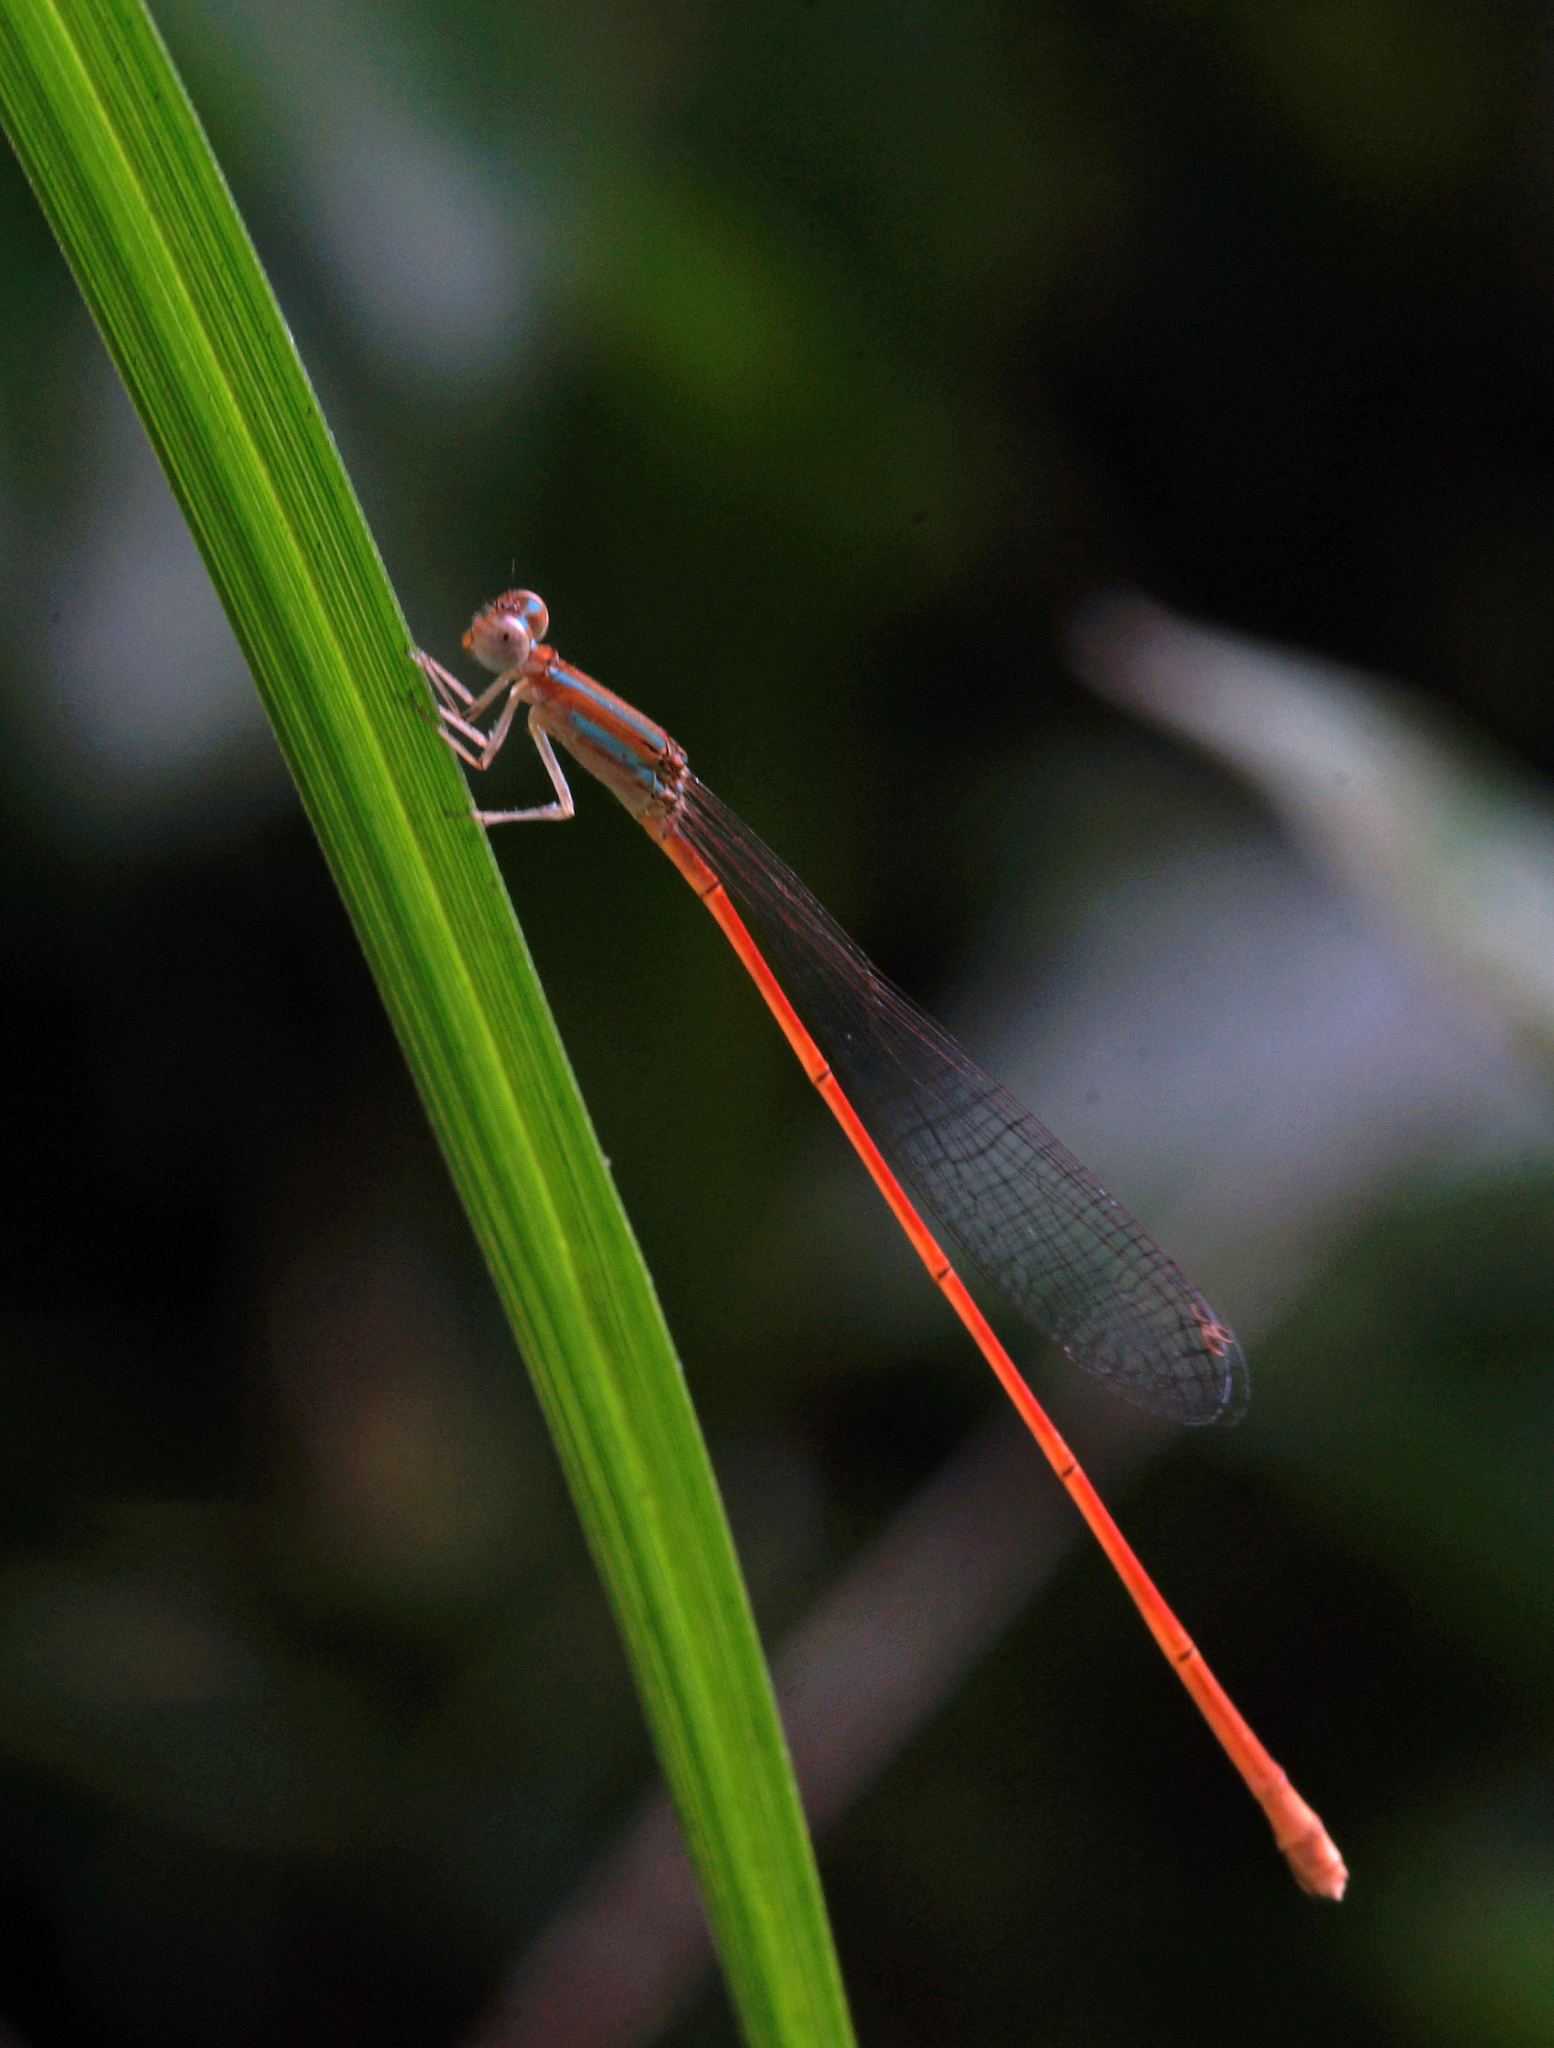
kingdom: Animalia
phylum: Arthropoda
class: Insecta
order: Odonata
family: Coenagrionidae
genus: Aciagrion
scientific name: Aciagrion pallidum
